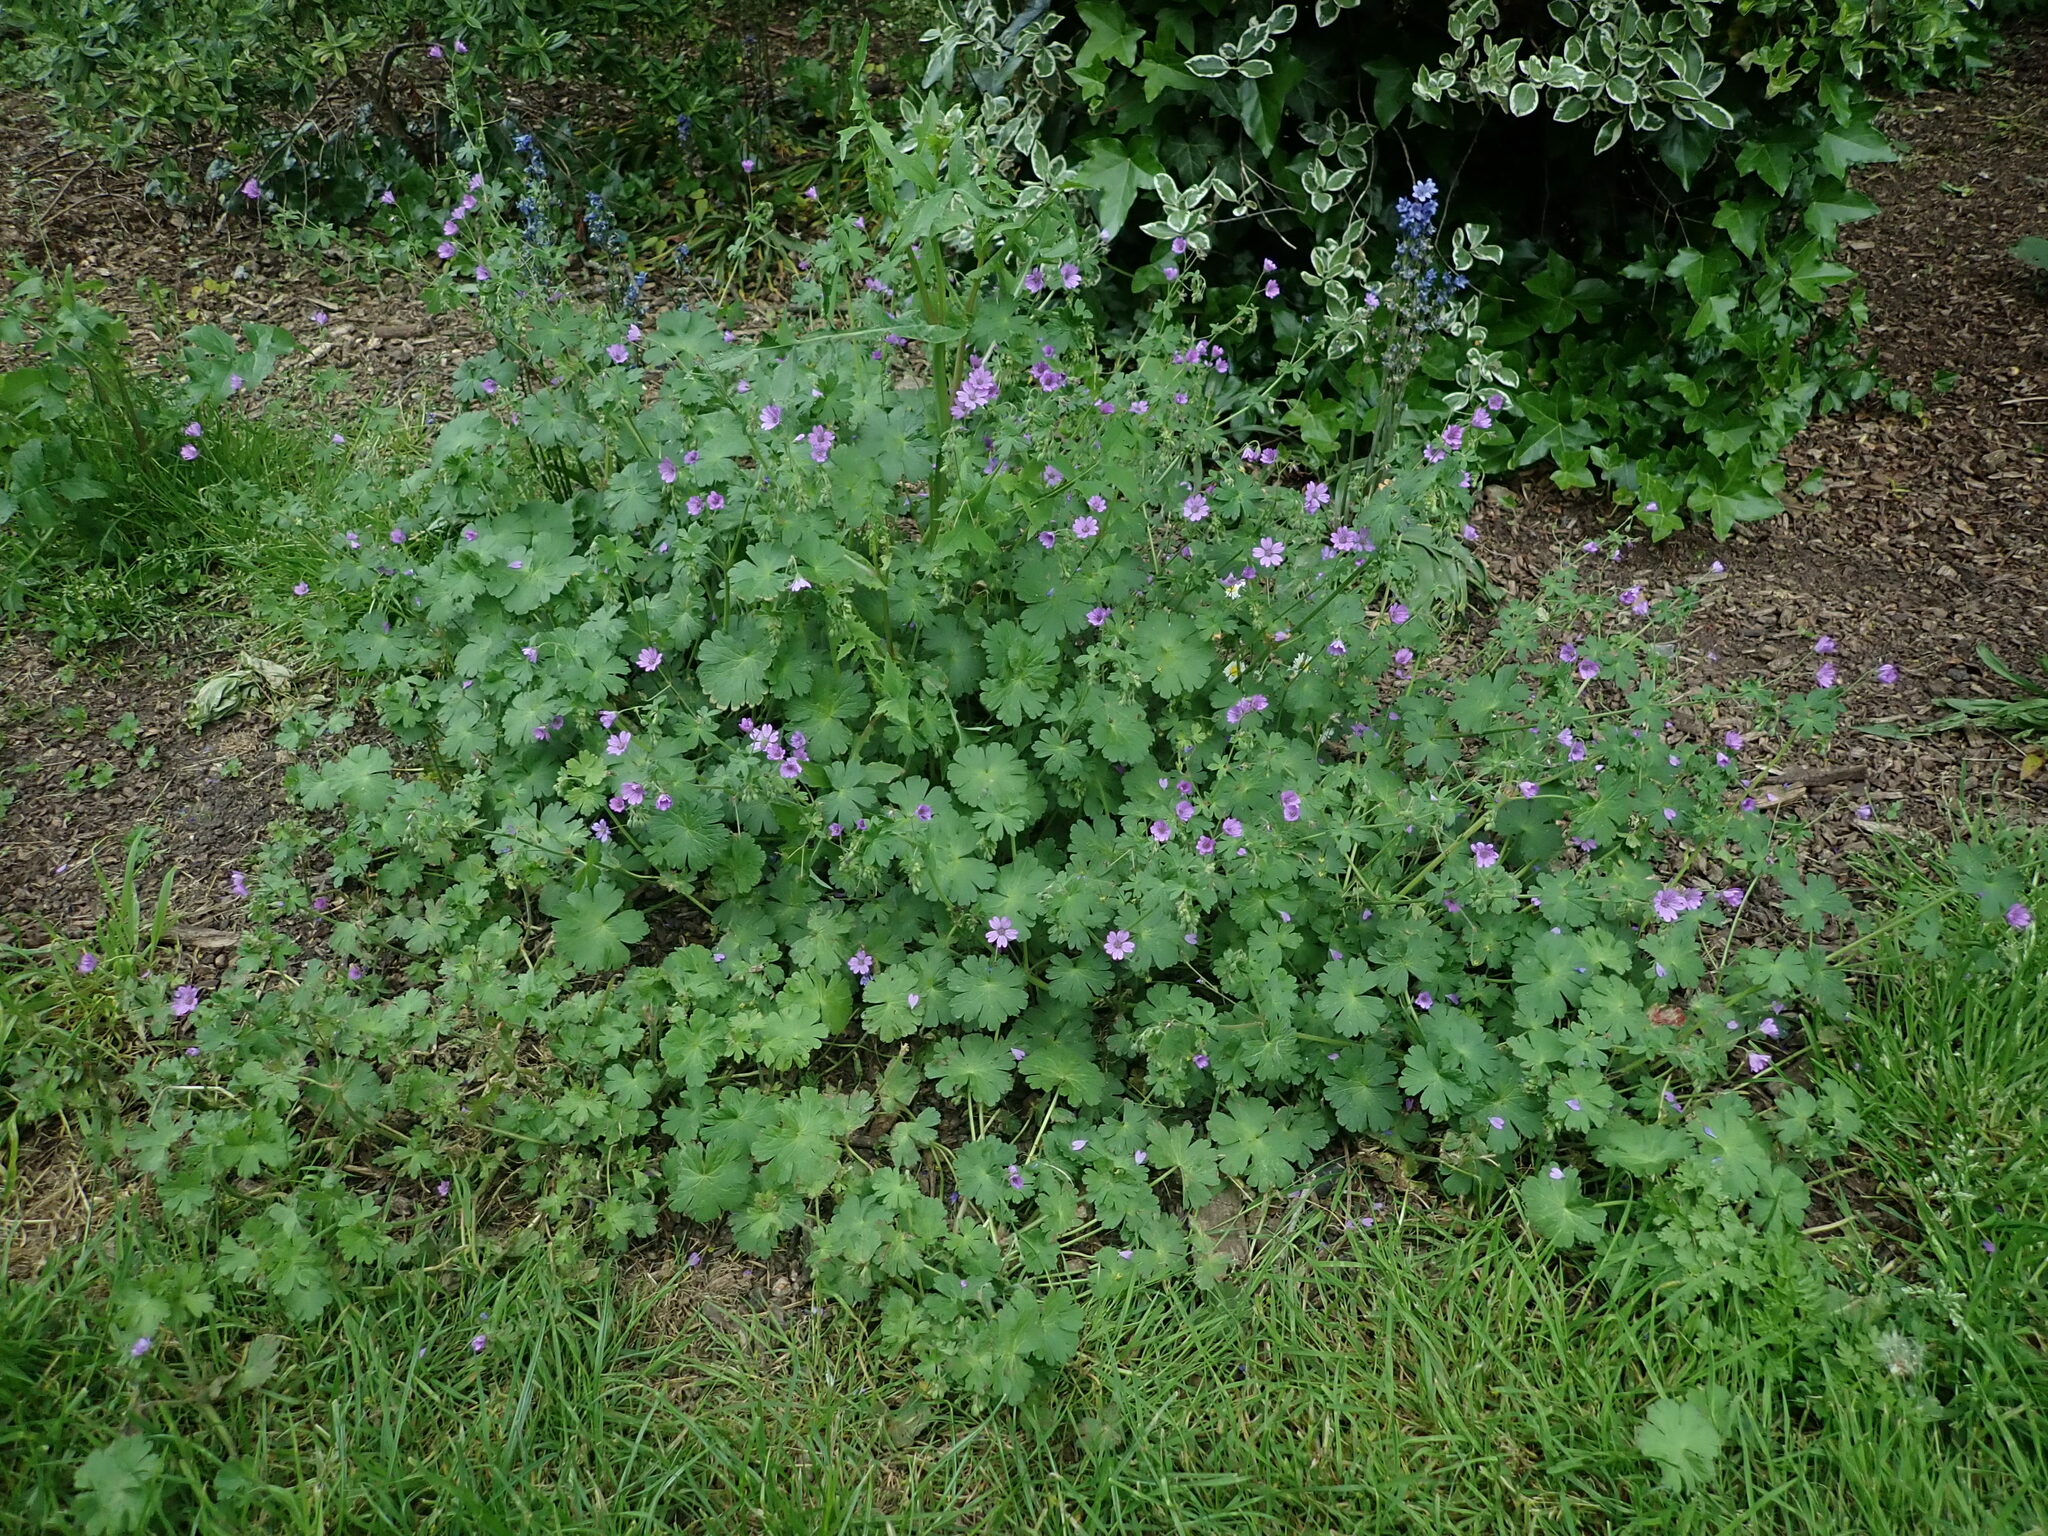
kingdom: Plantae
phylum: Tracheophyta
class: Magnoliopsida
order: Geraniales
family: Geraniaceae
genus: Geranium
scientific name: Geranium pyrenaicum
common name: Hedgerow crane's-bill
